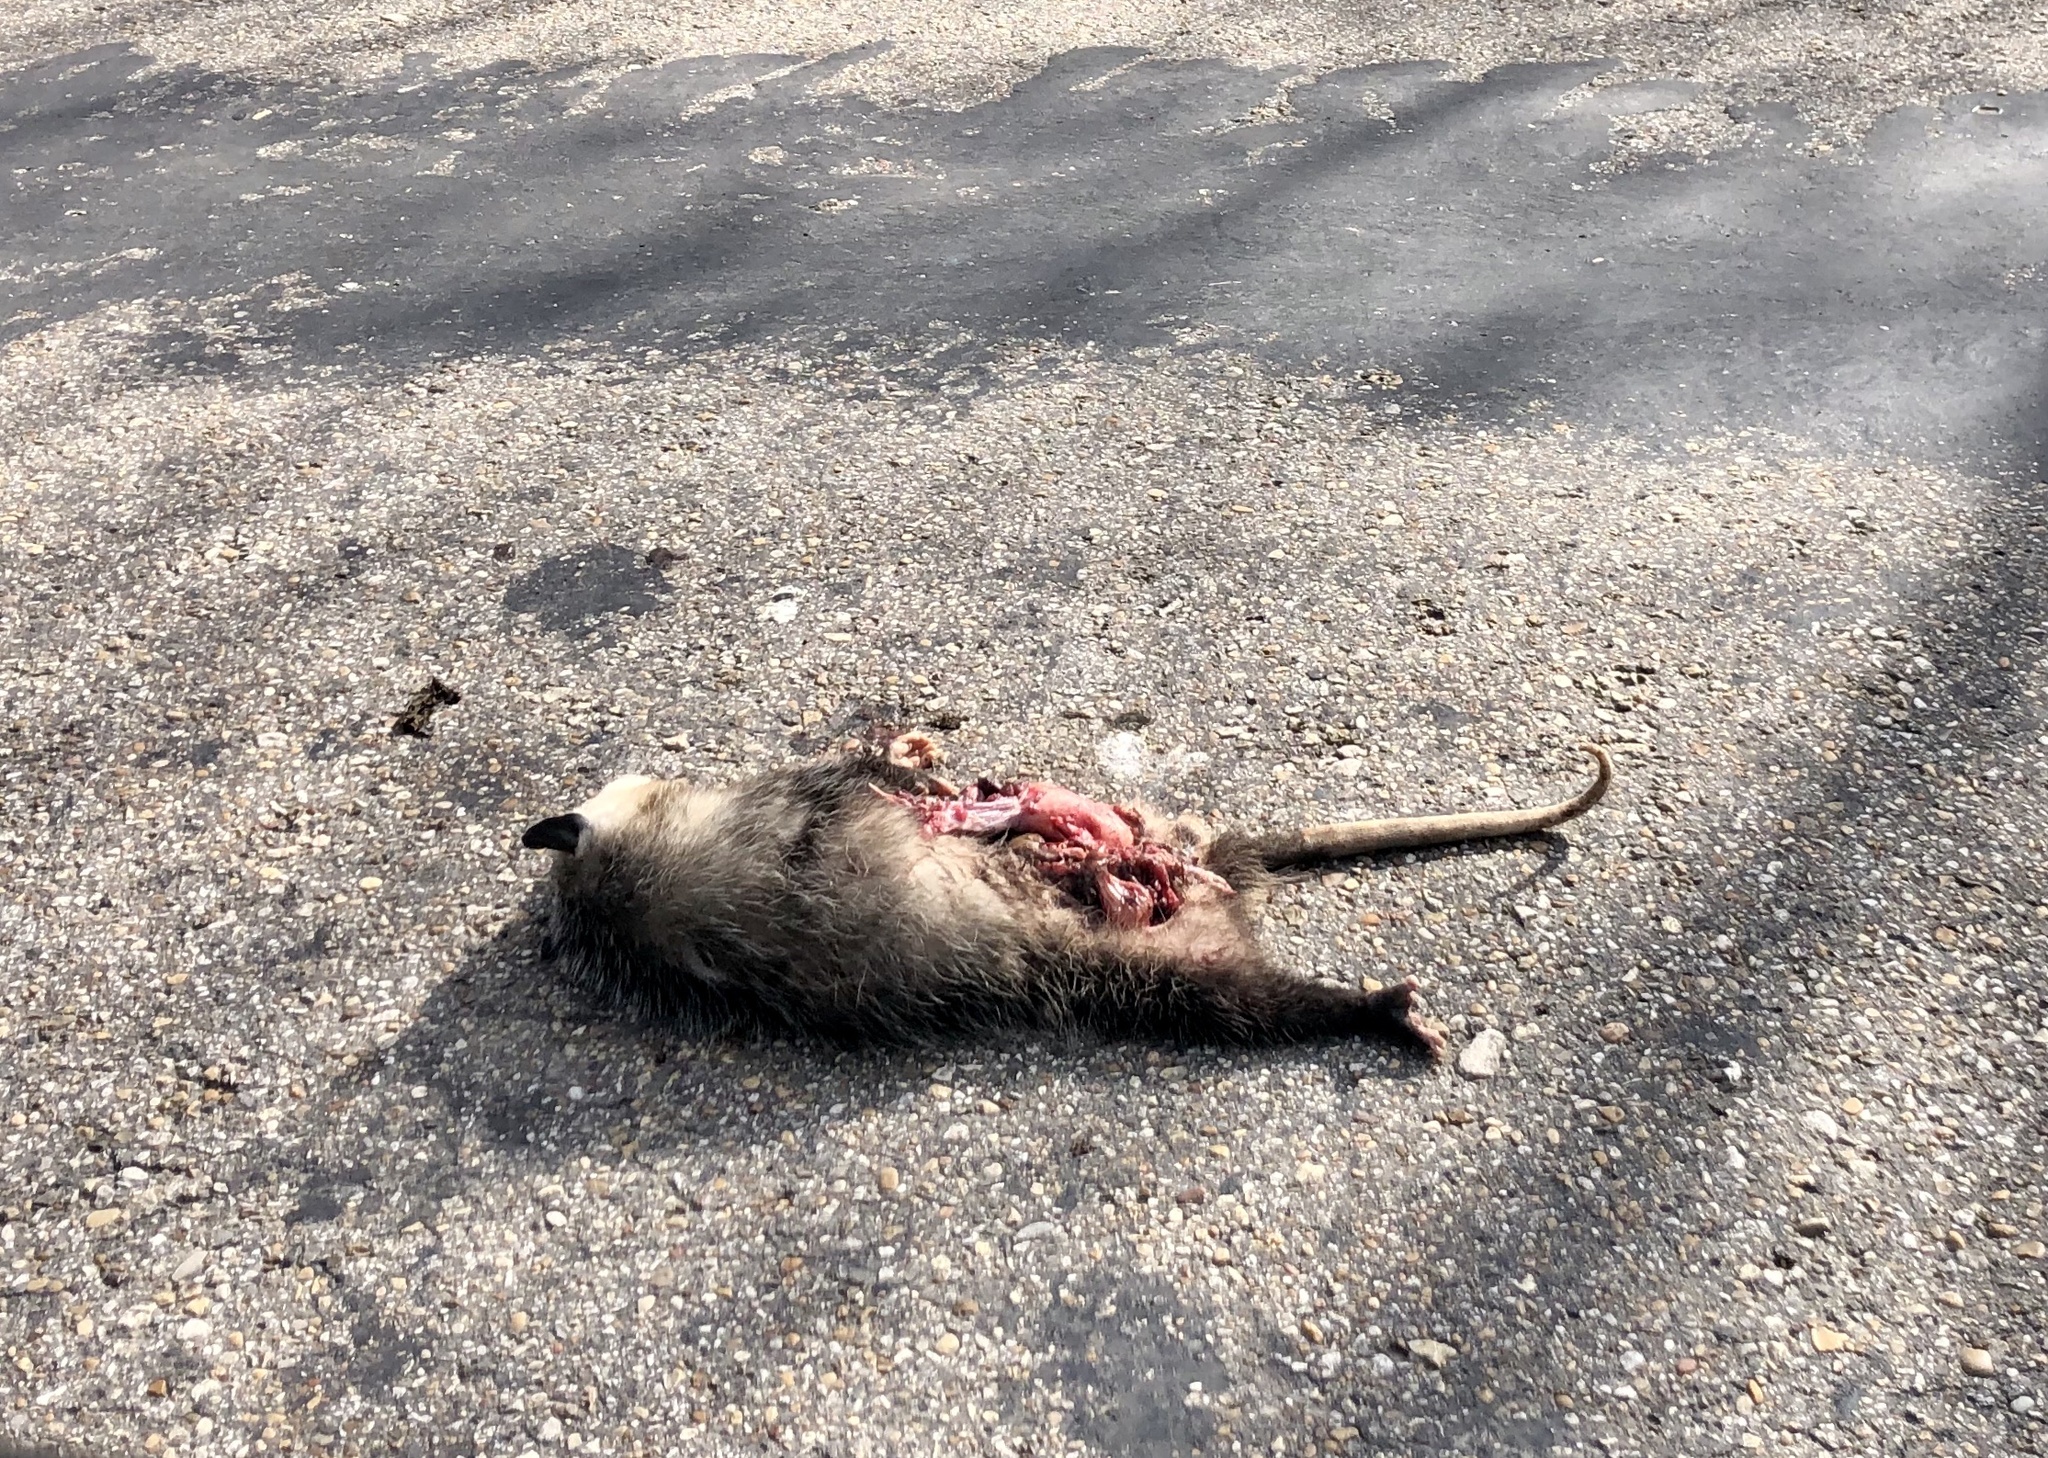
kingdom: Animalia
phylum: Chordata
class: Mammalia
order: Didelphimorphia
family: Didelphidae
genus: Didelphis
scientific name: Didelphis virginiana
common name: Virginia opossum
